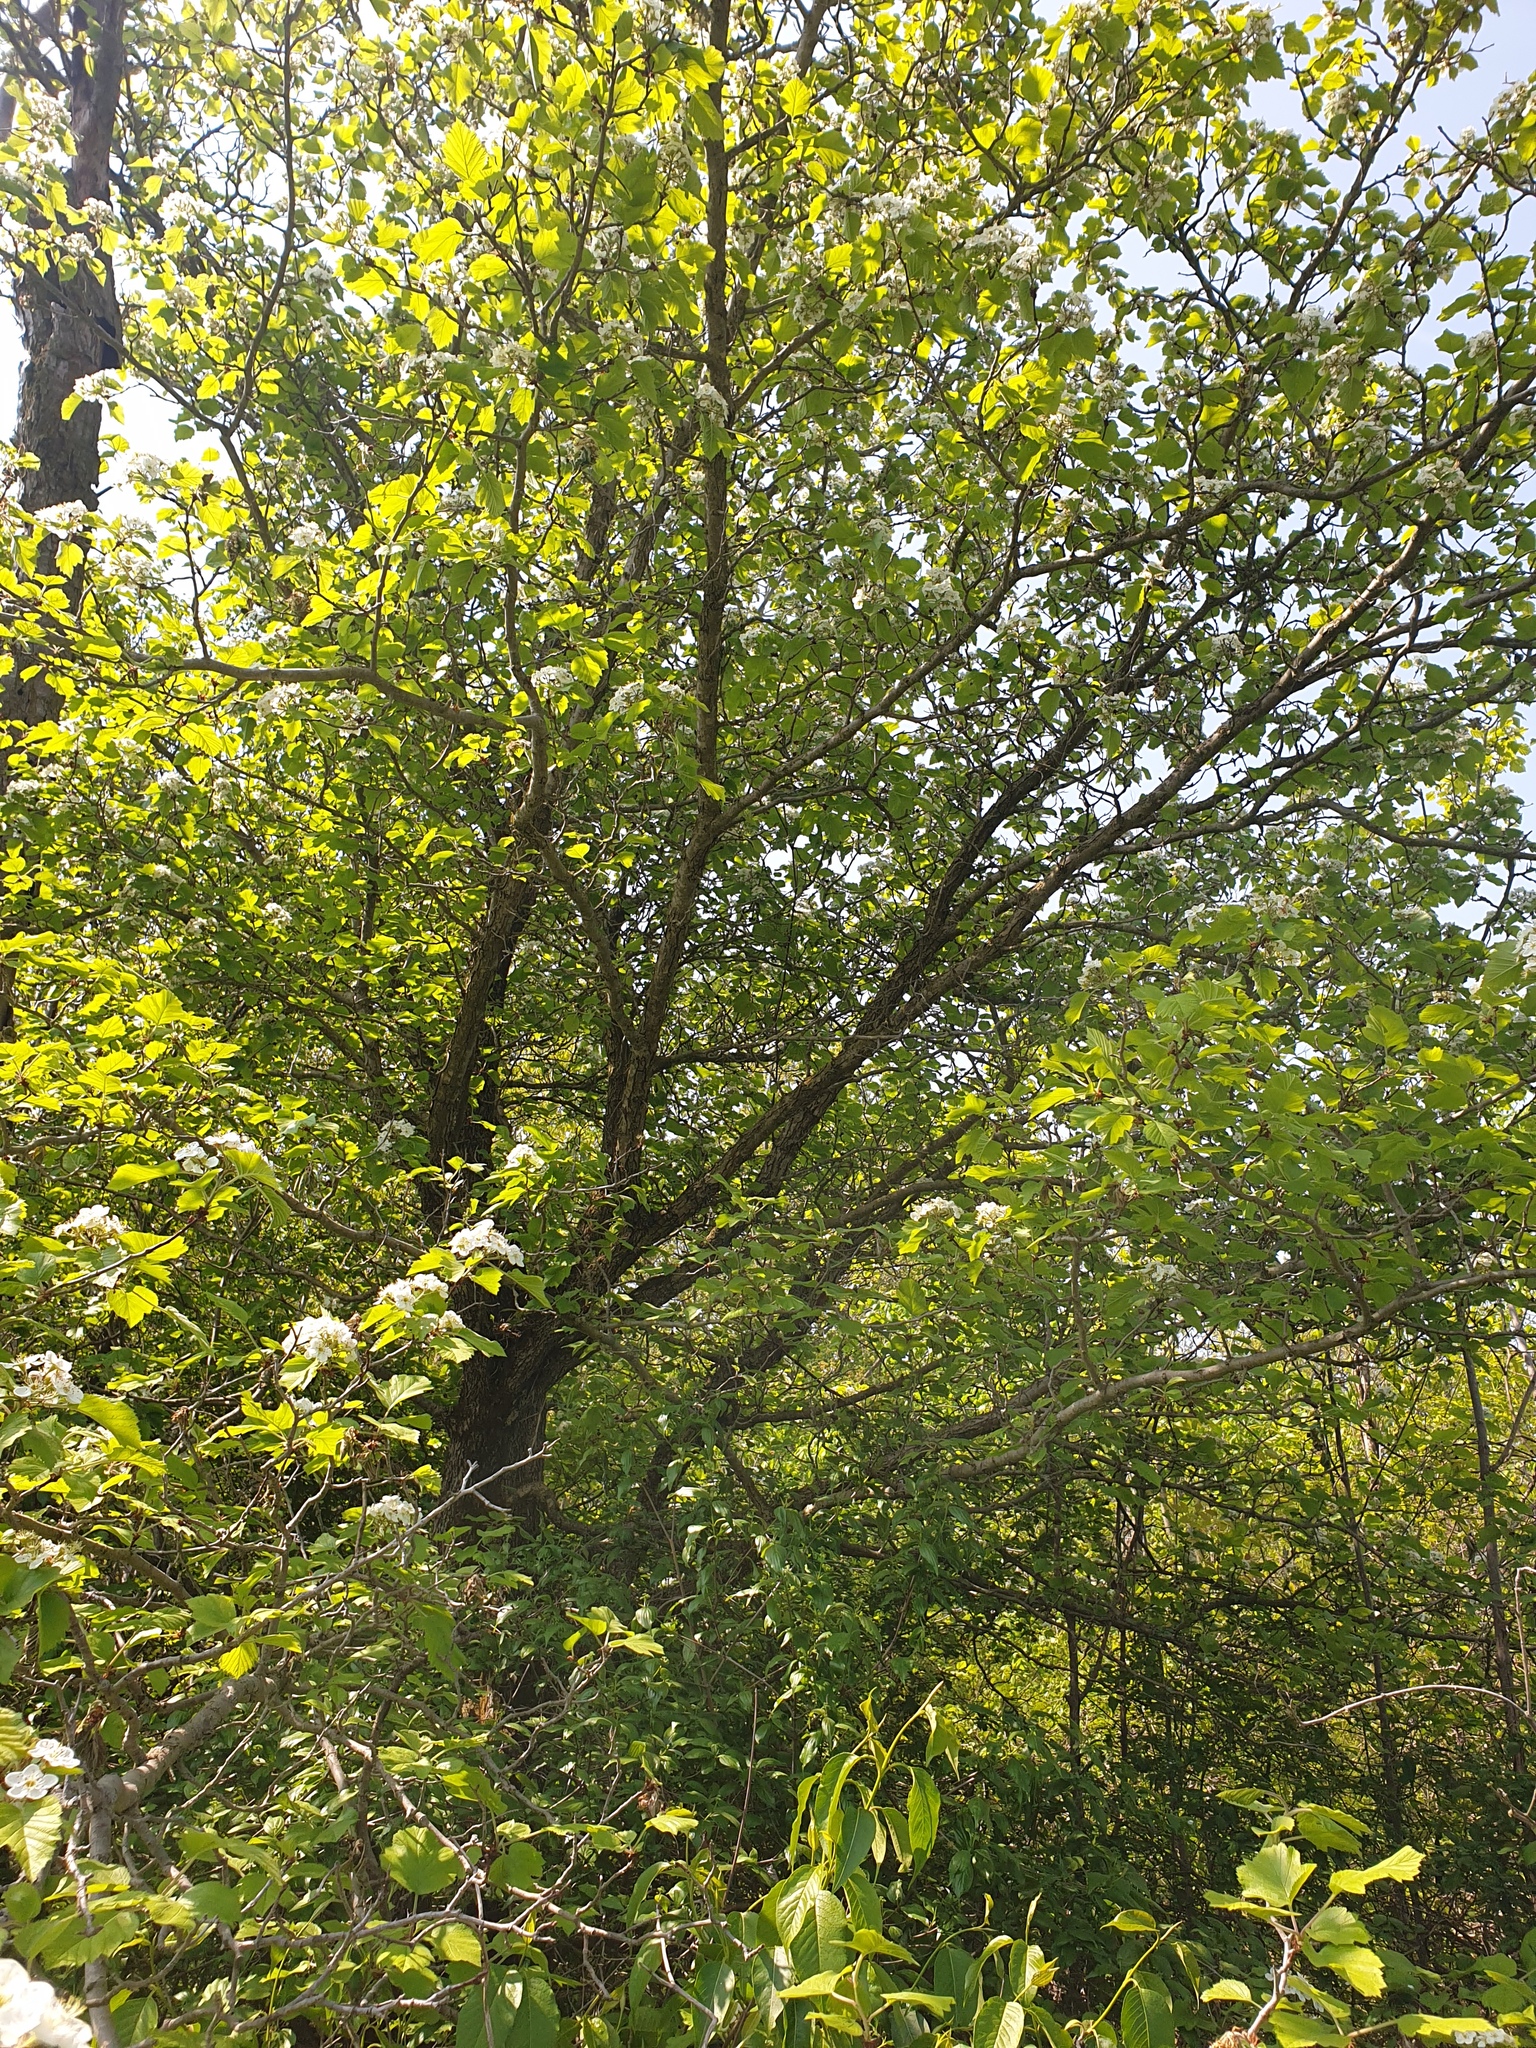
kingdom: Plantae
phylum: Tracheophyta
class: Magnoliopsida
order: Rosales
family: Rosaceae
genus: Crataegus
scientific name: Crataegus mollis
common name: Downy hawthorn
